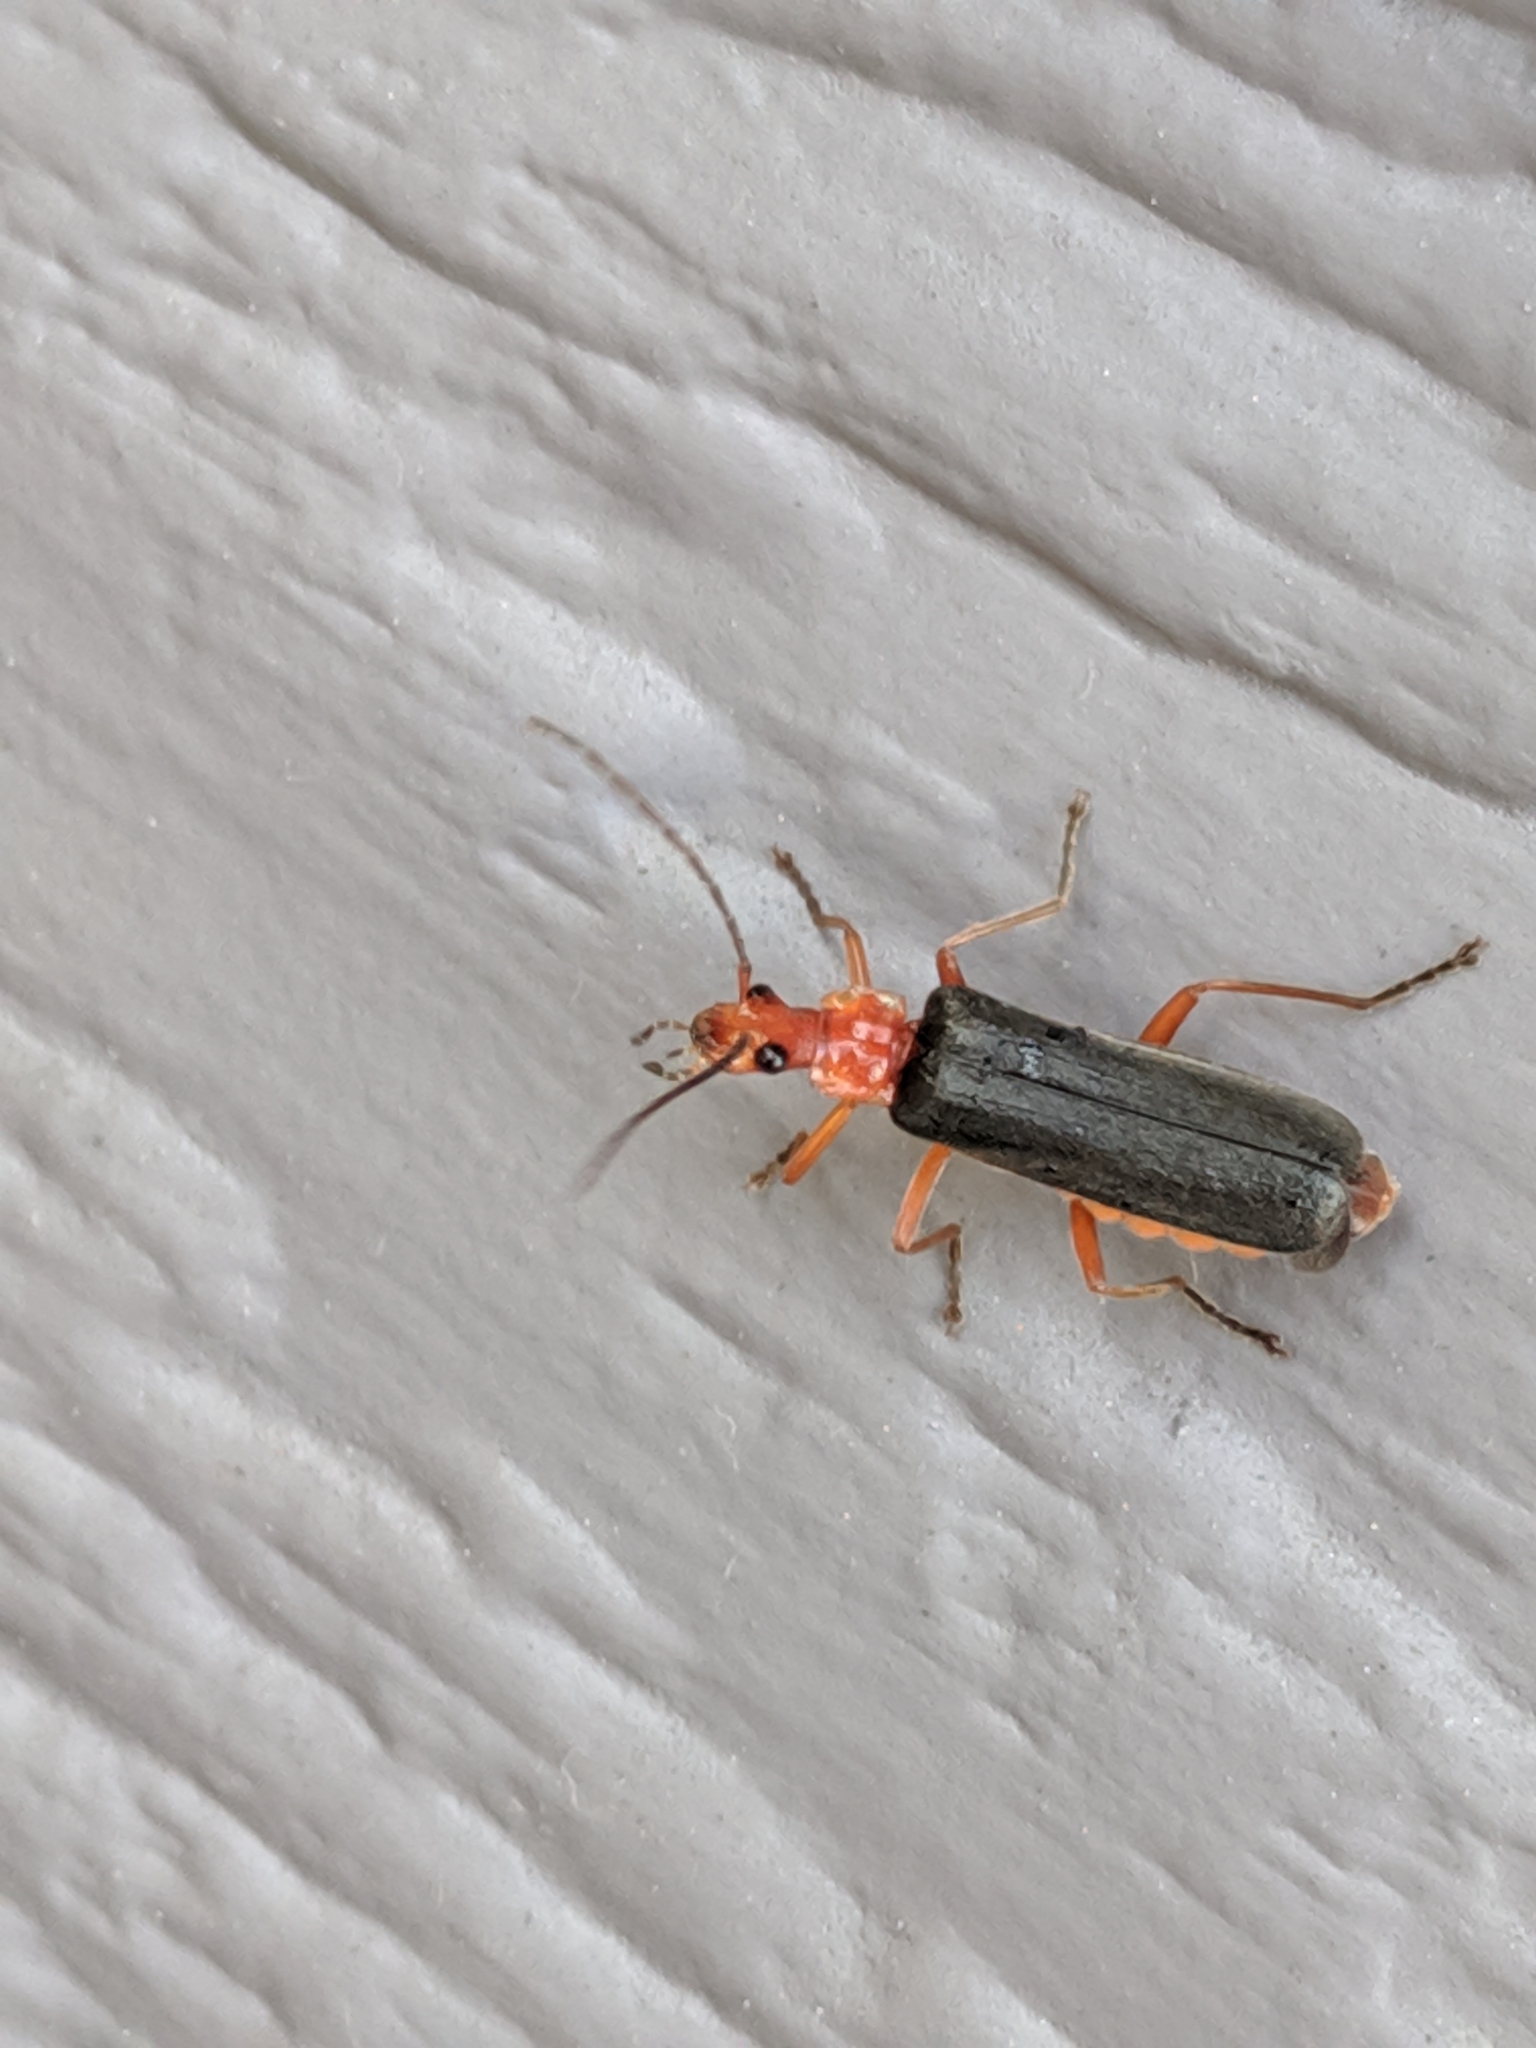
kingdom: Animalia
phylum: Arthropoda
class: Insecta
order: Coleoptera
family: Cantharidae
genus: Podabrus
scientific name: Podabrus pruinosus
